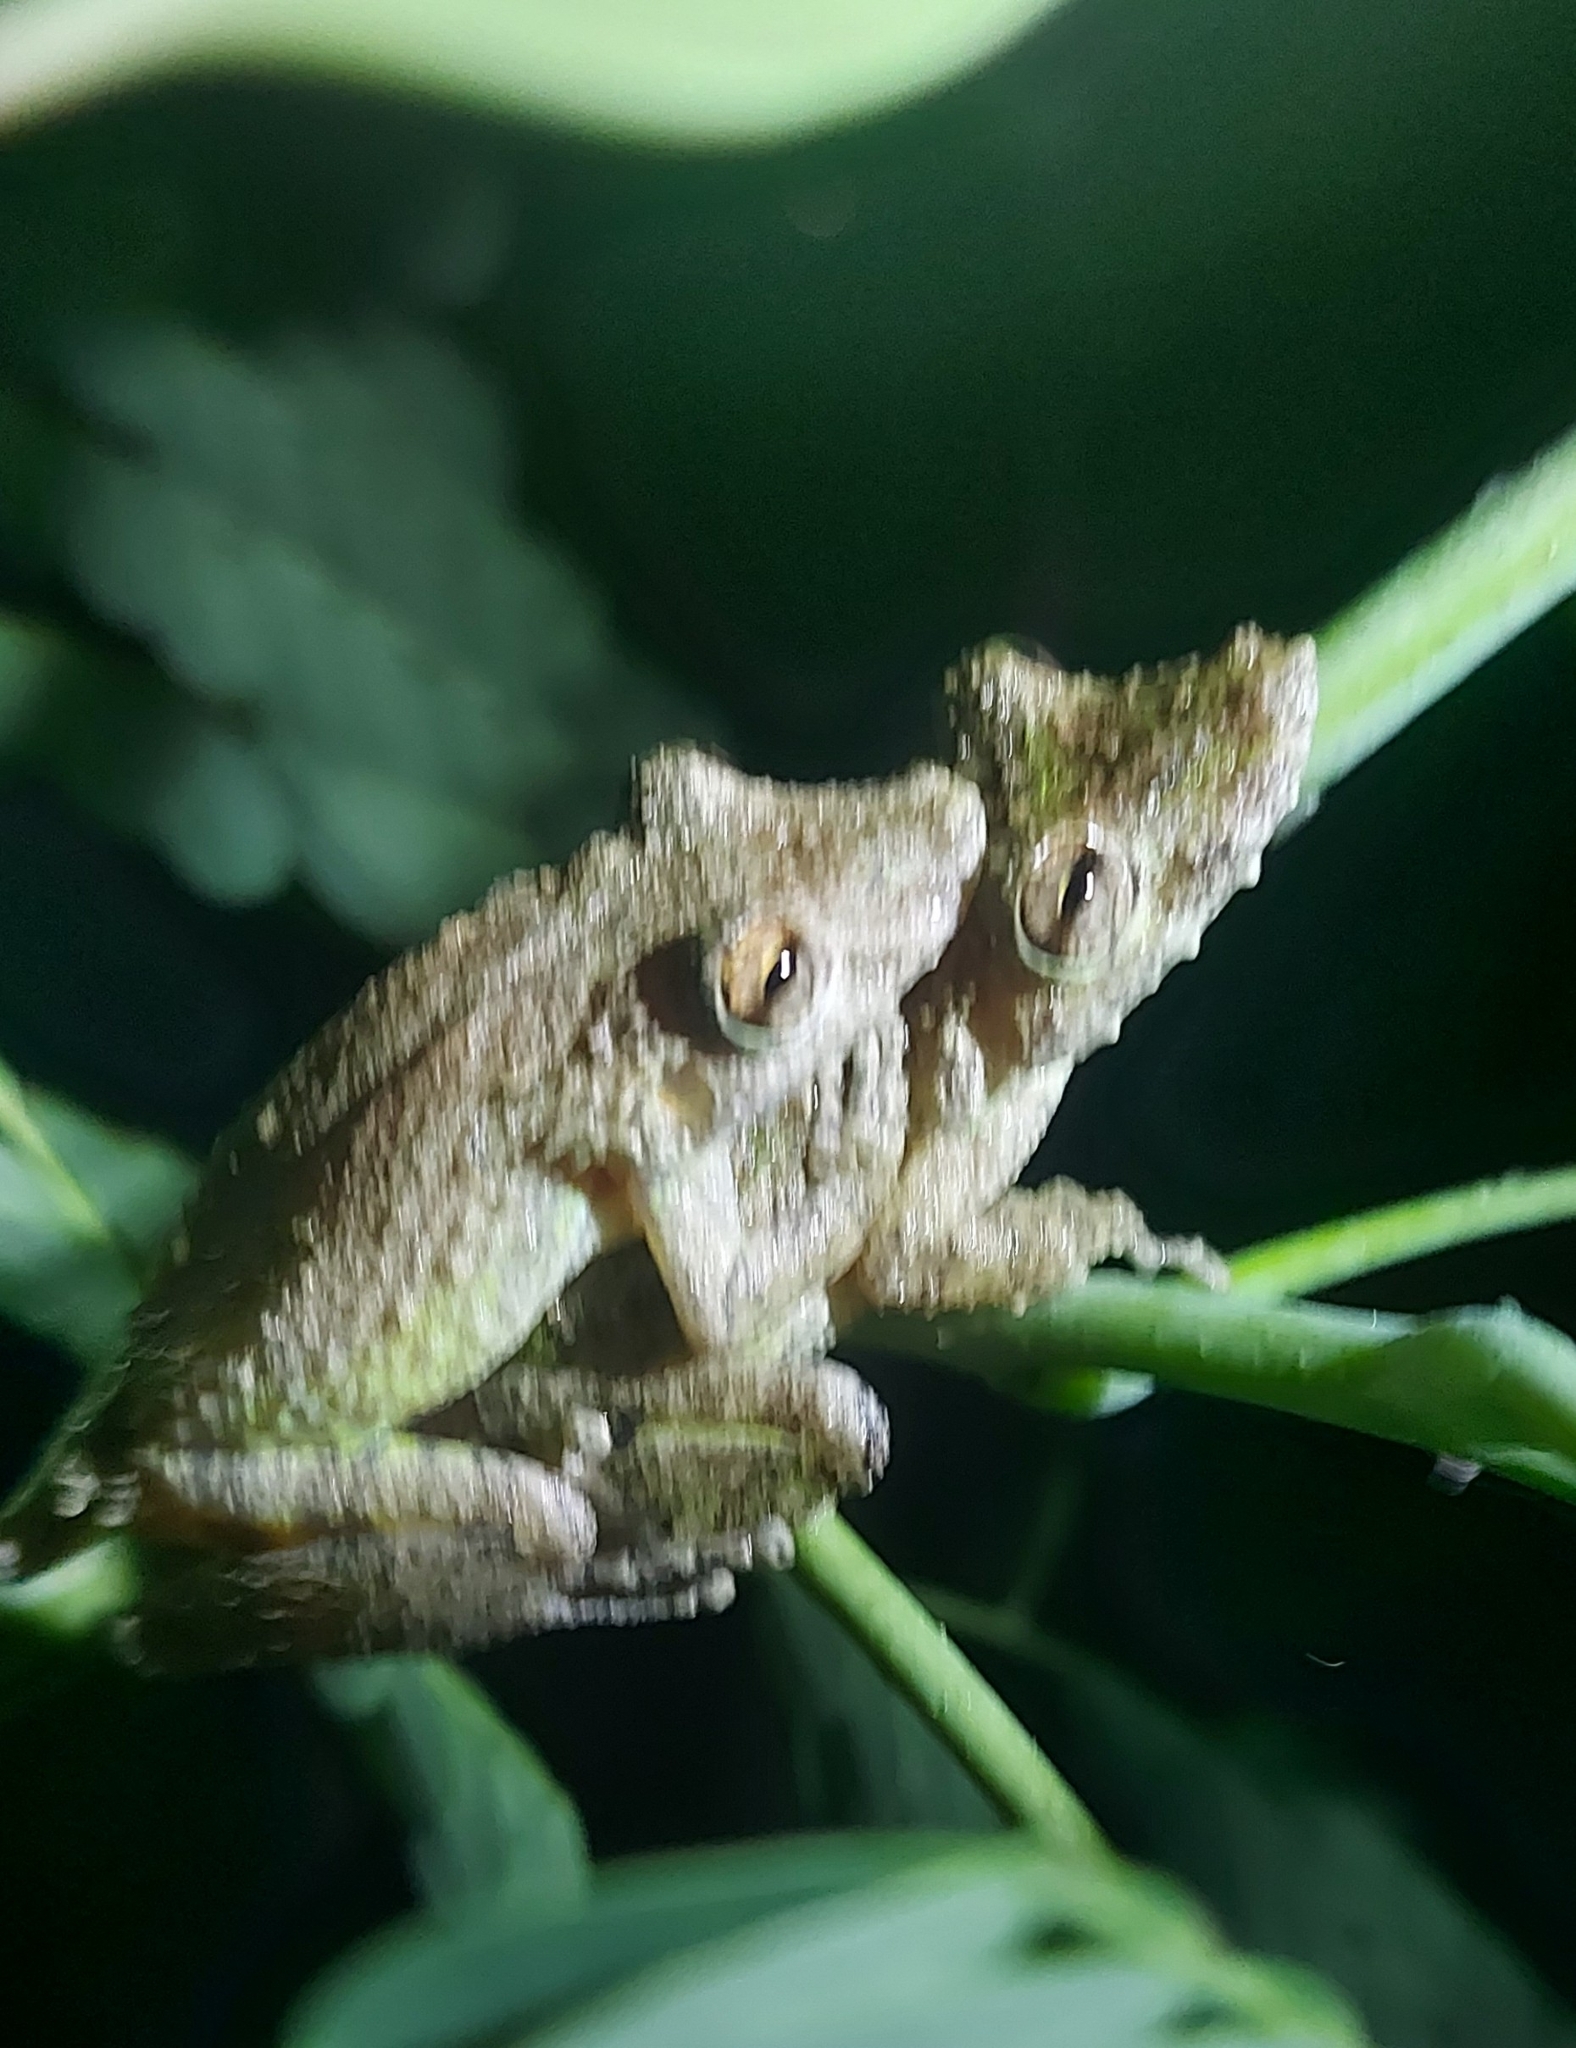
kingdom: Animalia
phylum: Chordata
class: Amphibia
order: Anura
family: Hylidae
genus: Scinax
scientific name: Scinax boulengeri
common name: Boulenger's snouted treefrog
